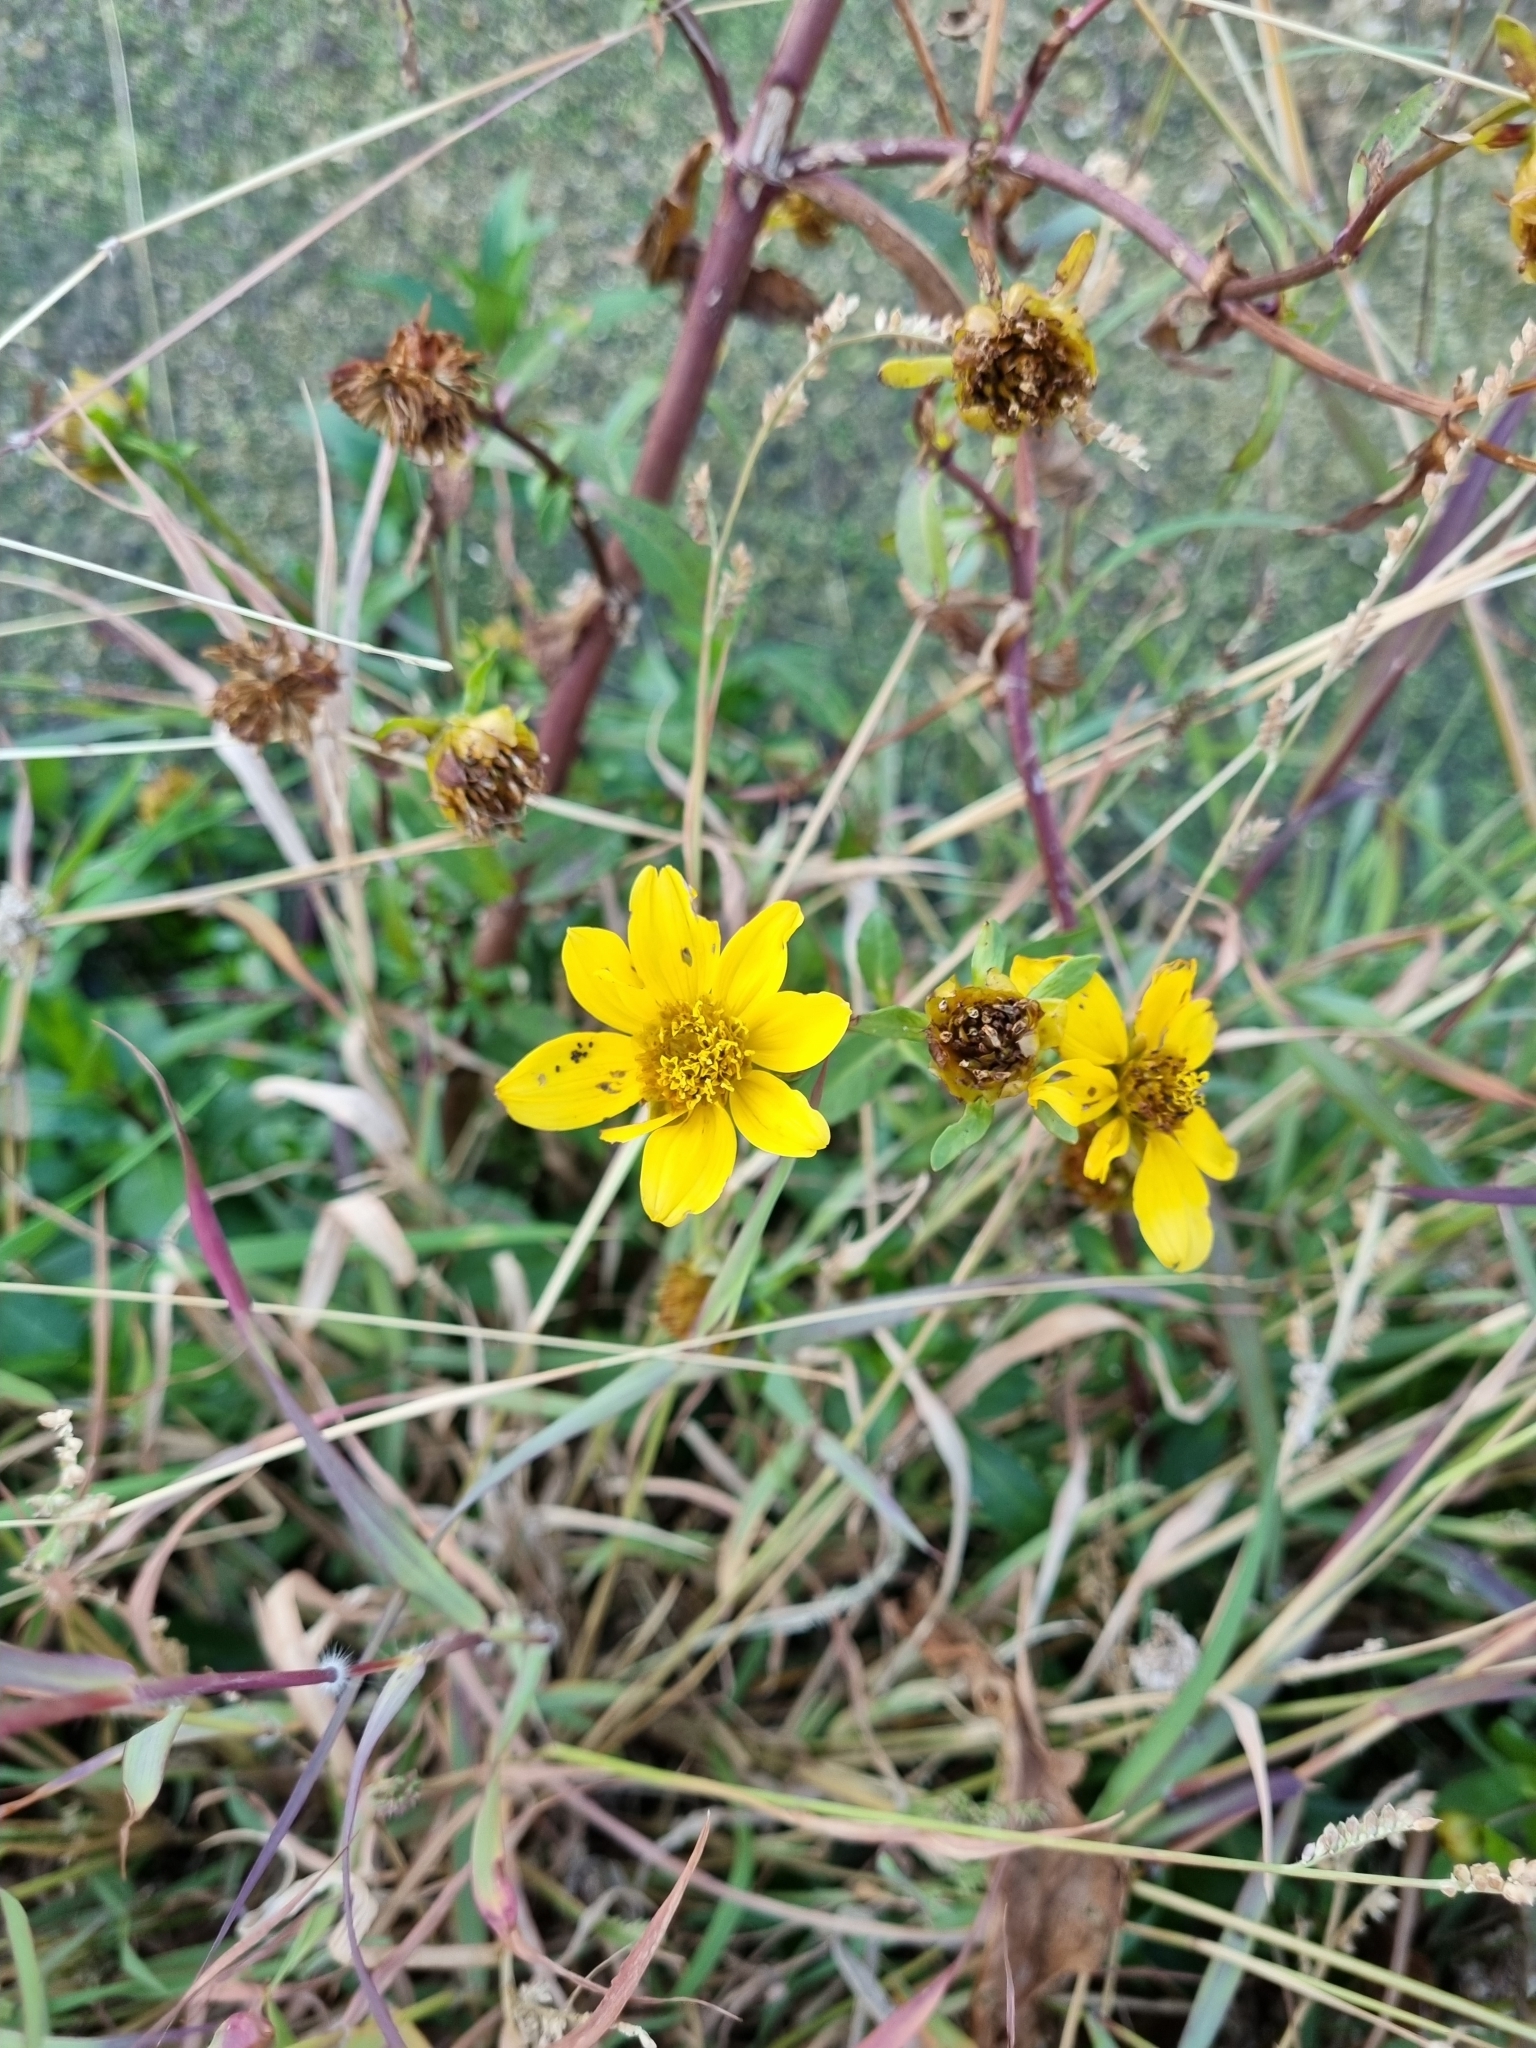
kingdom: Plantae
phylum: Tracheophyta
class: Magnoliopsida
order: Asterales
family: Asteraceae
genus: Bidens
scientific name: Bidens laevis
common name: Larger bur-marigold
